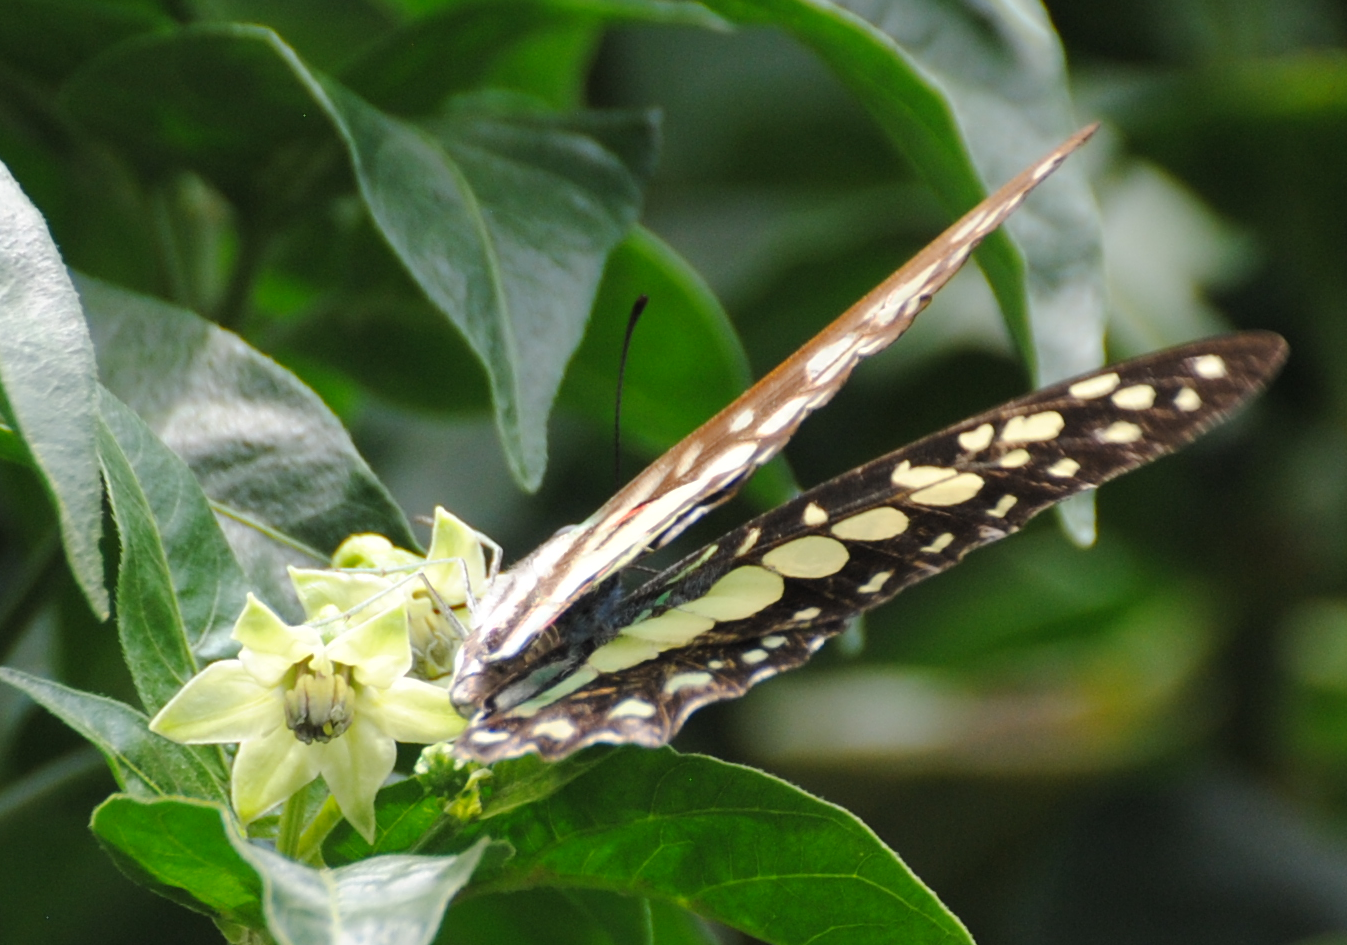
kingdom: Animalia
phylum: Arthropoda
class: Insecta
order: Lepidoptera
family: Papilionidae
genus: Graphium
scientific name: Graphium doson
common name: Common jay
